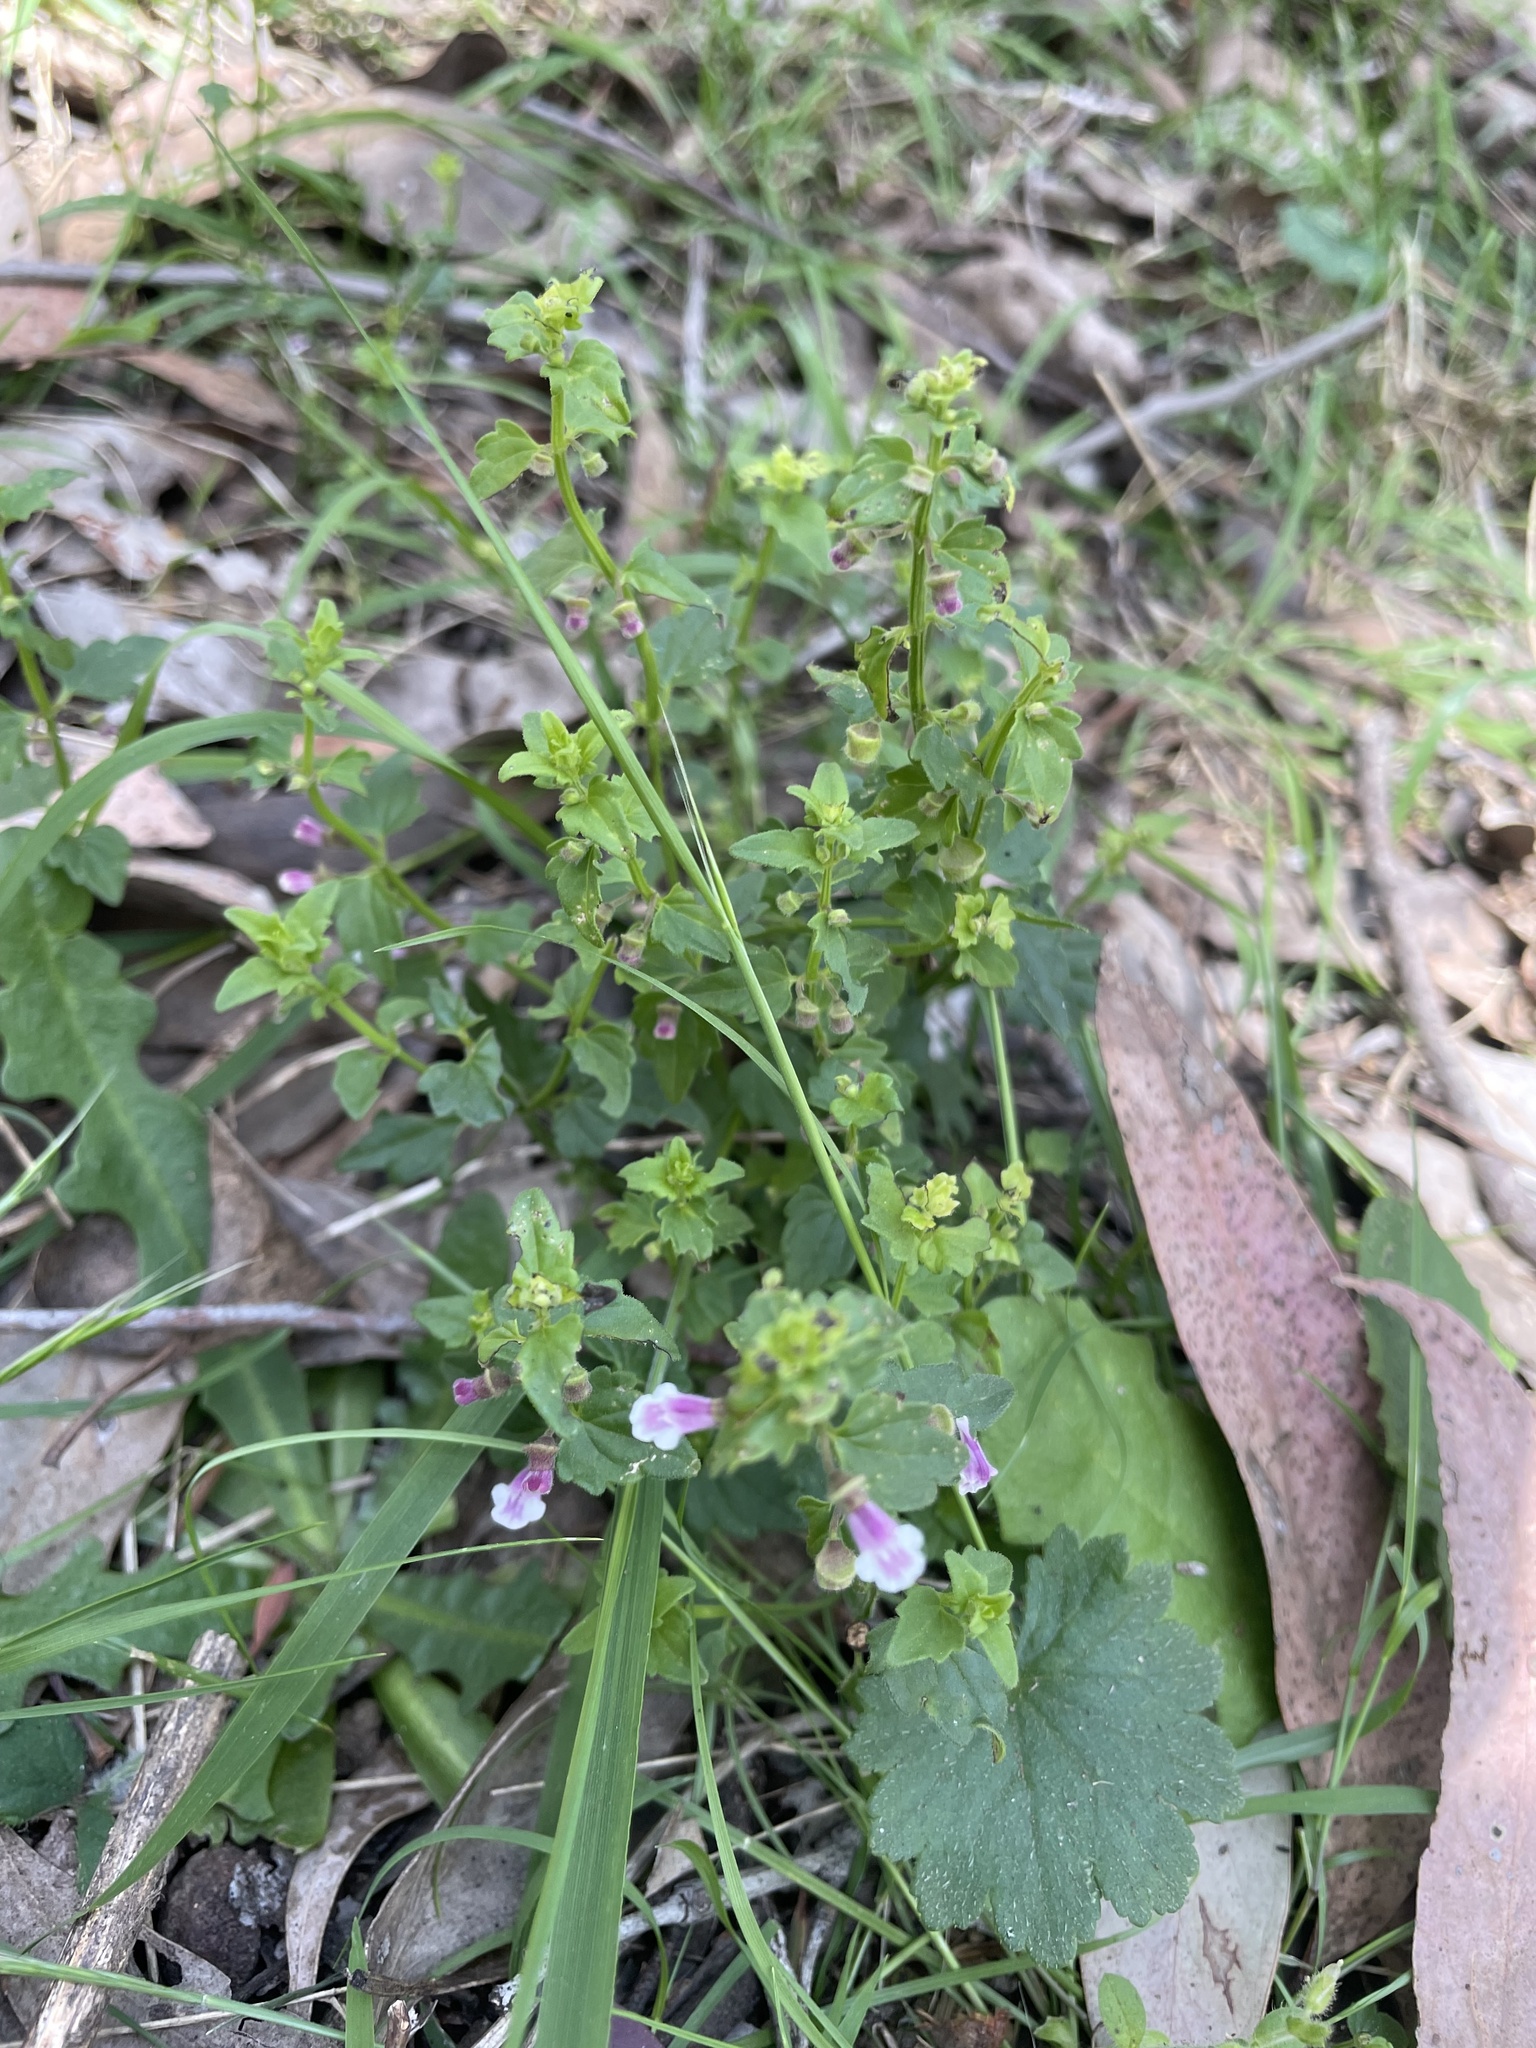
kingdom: Plantae
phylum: Tracheophyta
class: Magnoliopsida
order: Lamiales
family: Lamiaceae
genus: Scutellaria
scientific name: Scutellaria humilis
